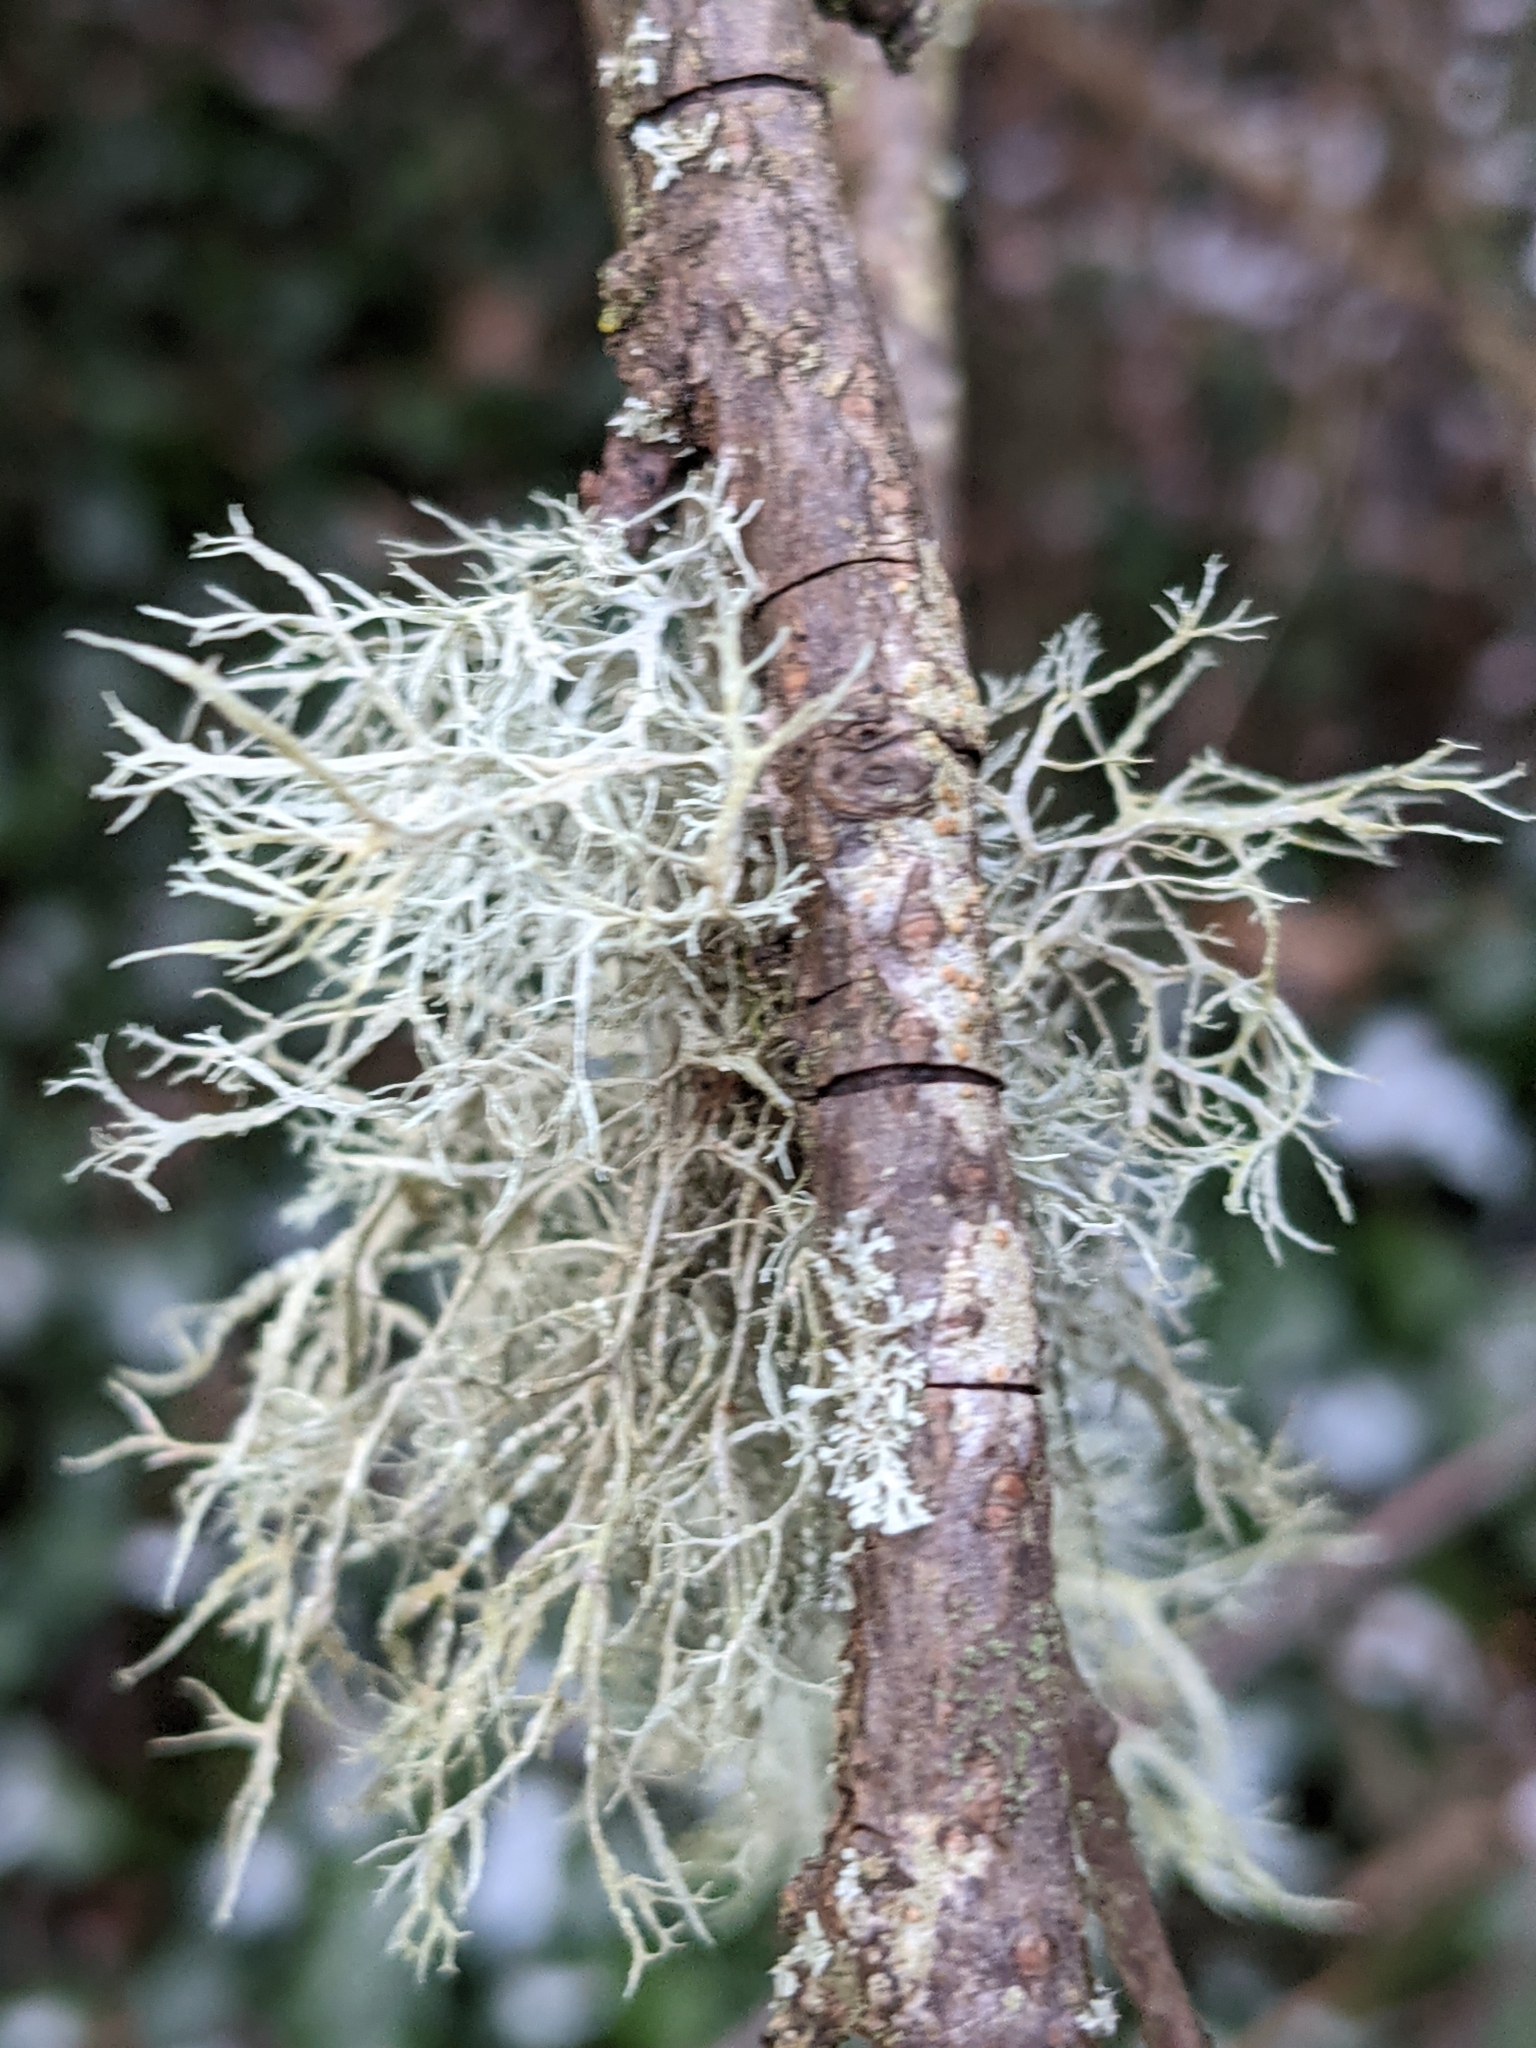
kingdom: Fungi
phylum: Ascomycota
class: Lecanoromycetes
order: Lecanorales
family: Ramalinaceae
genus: Ramalina
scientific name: Ramalina farinacea
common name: Farinose cartilage lichen
